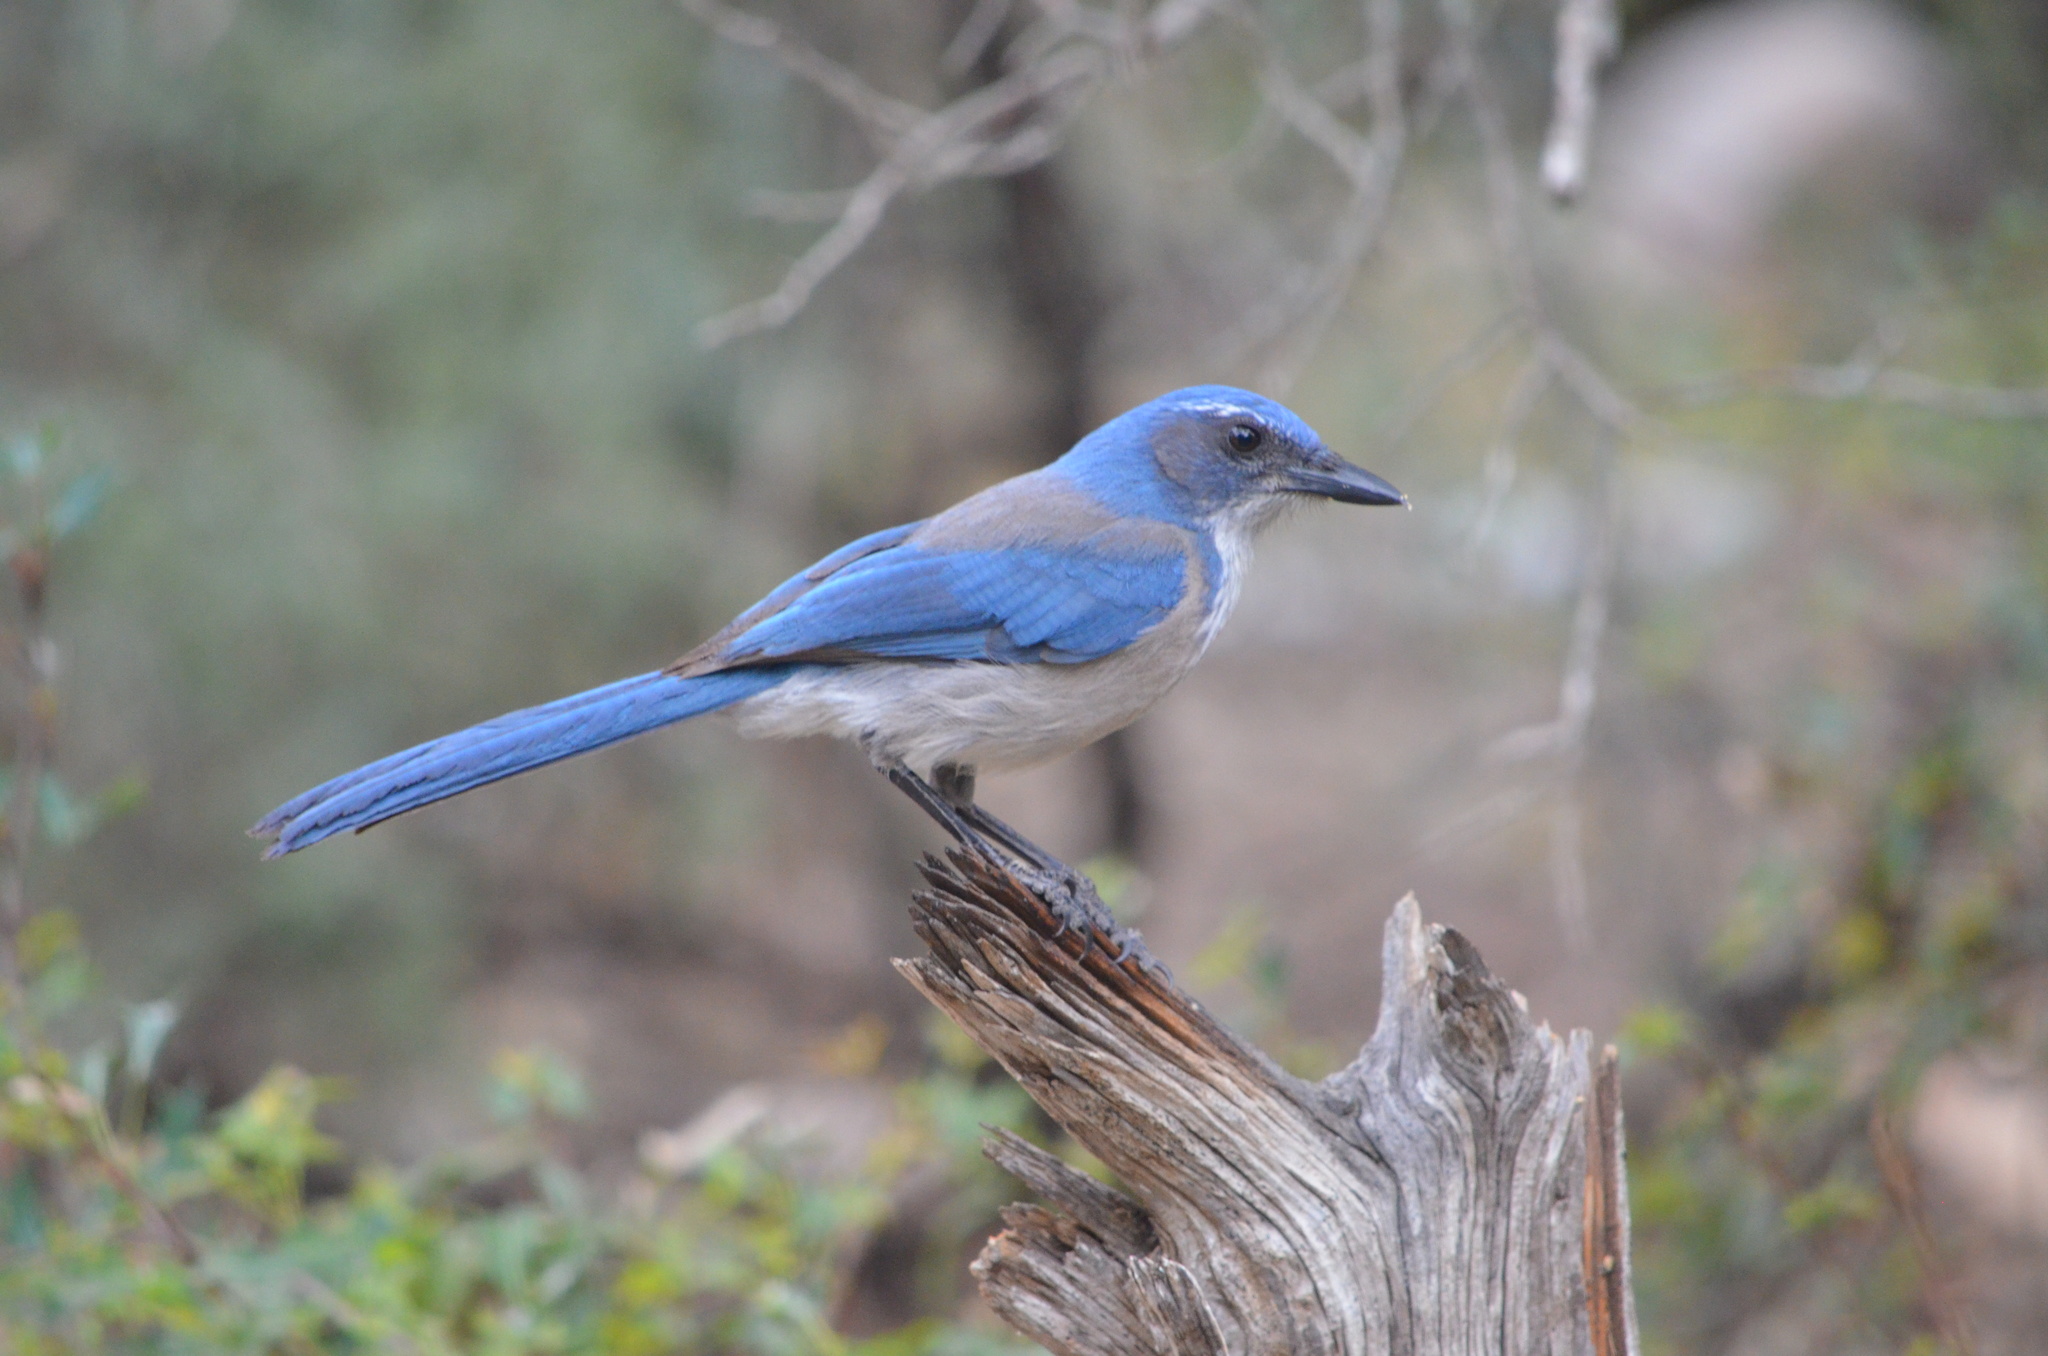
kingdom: Animalia
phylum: Chordata
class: Aves
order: Passeriformes
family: Corvidae
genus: Aphelocoma
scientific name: Aphelocoma woodhouseii
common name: Woodhouse's scrub-jay
